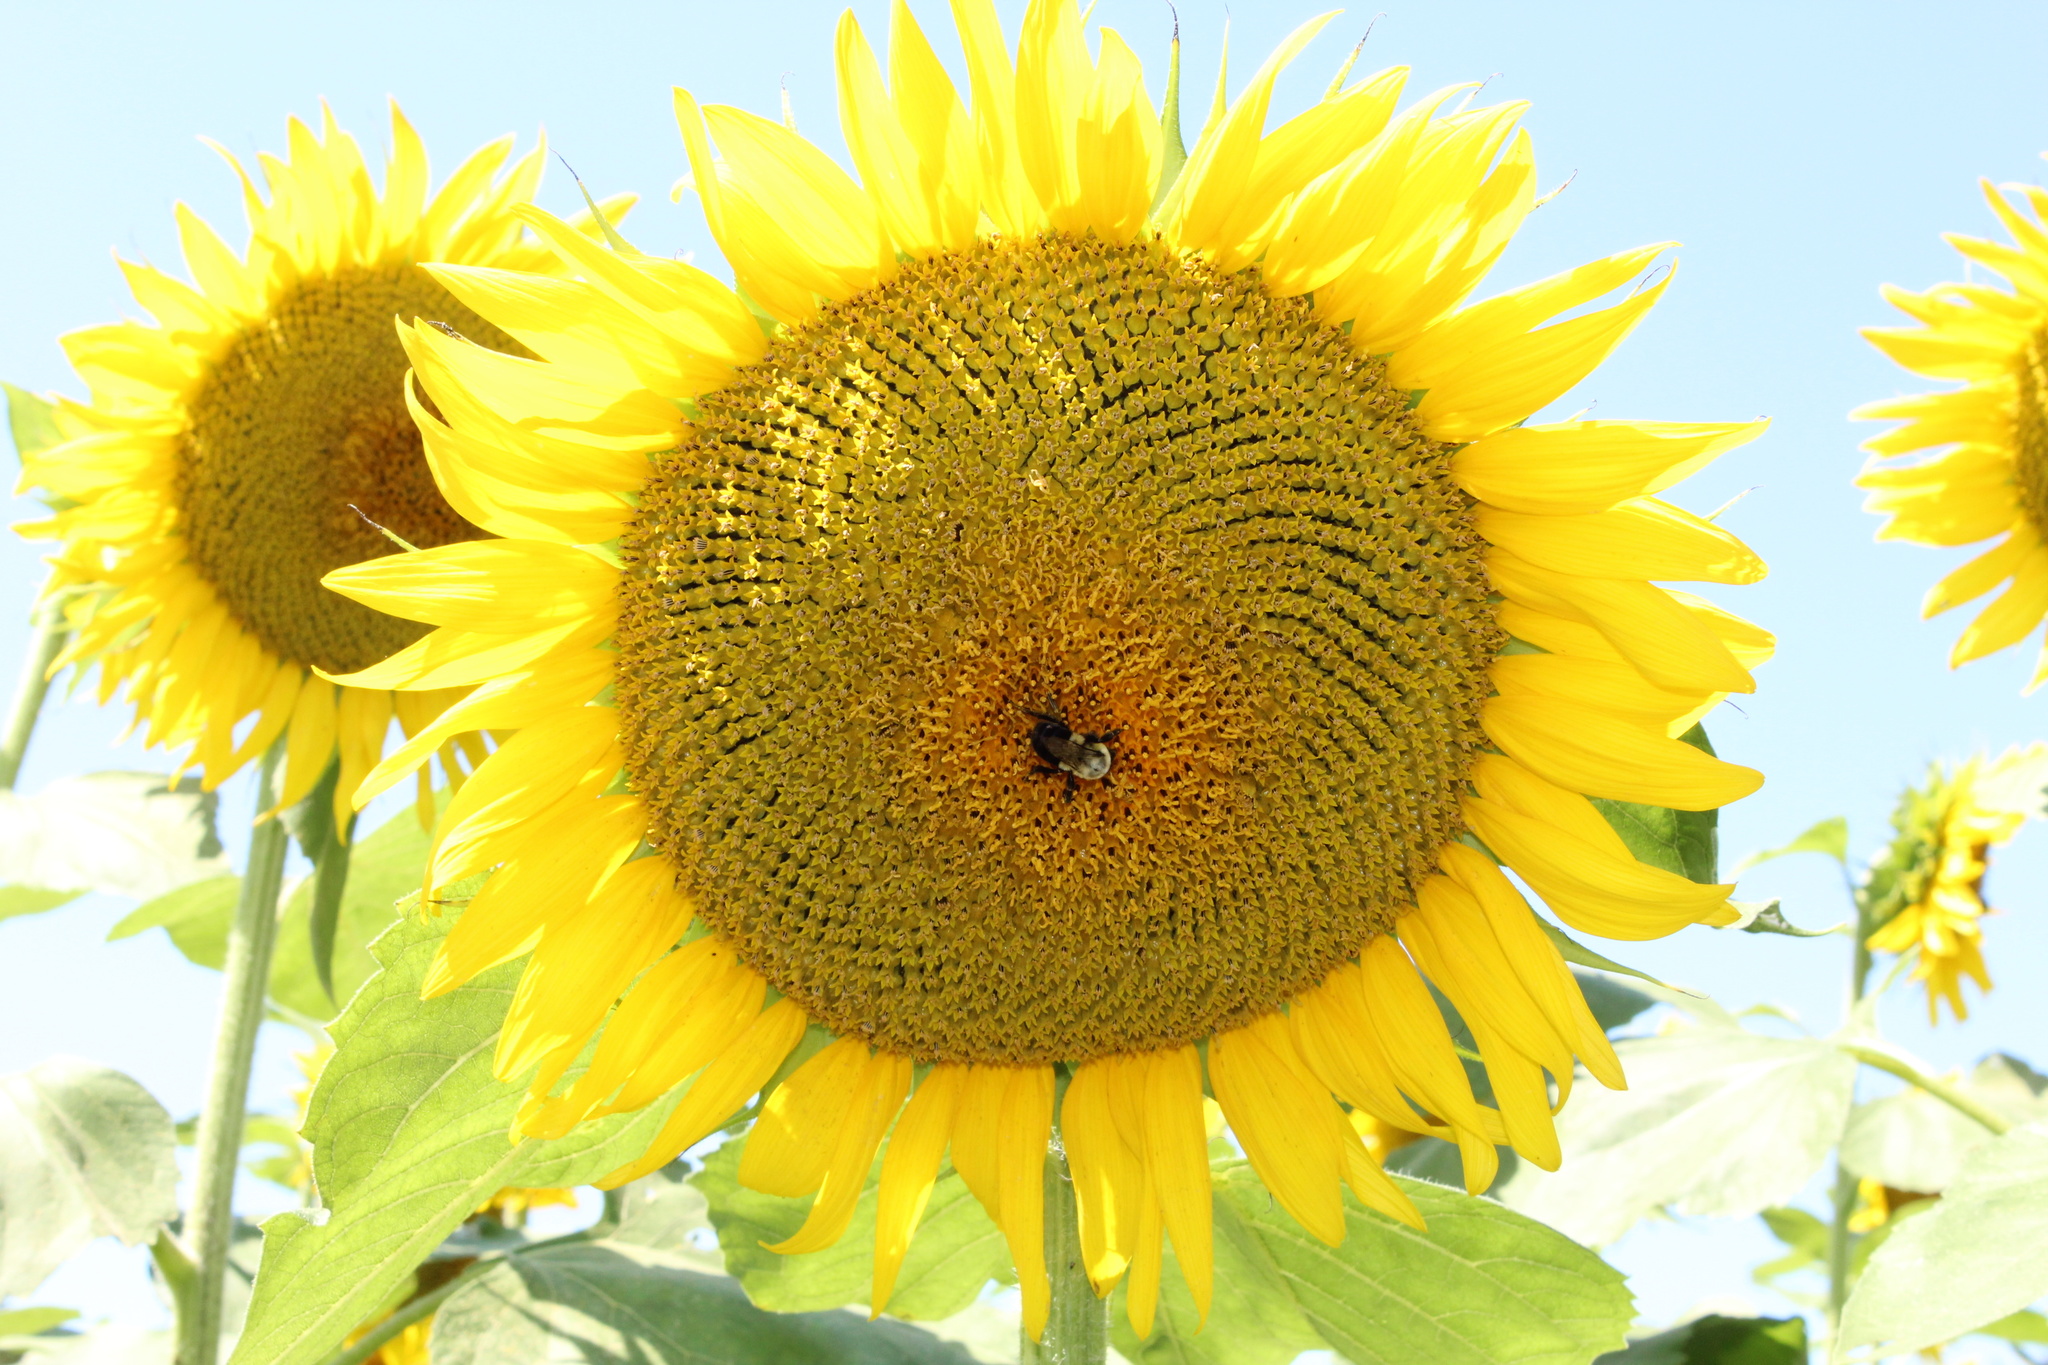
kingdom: Animalia
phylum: Arthropoda
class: Insecta
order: Hymenoptera
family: Apidae
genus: Bombus
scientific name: Bombus impatiens
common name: Common eastern bumble bee
